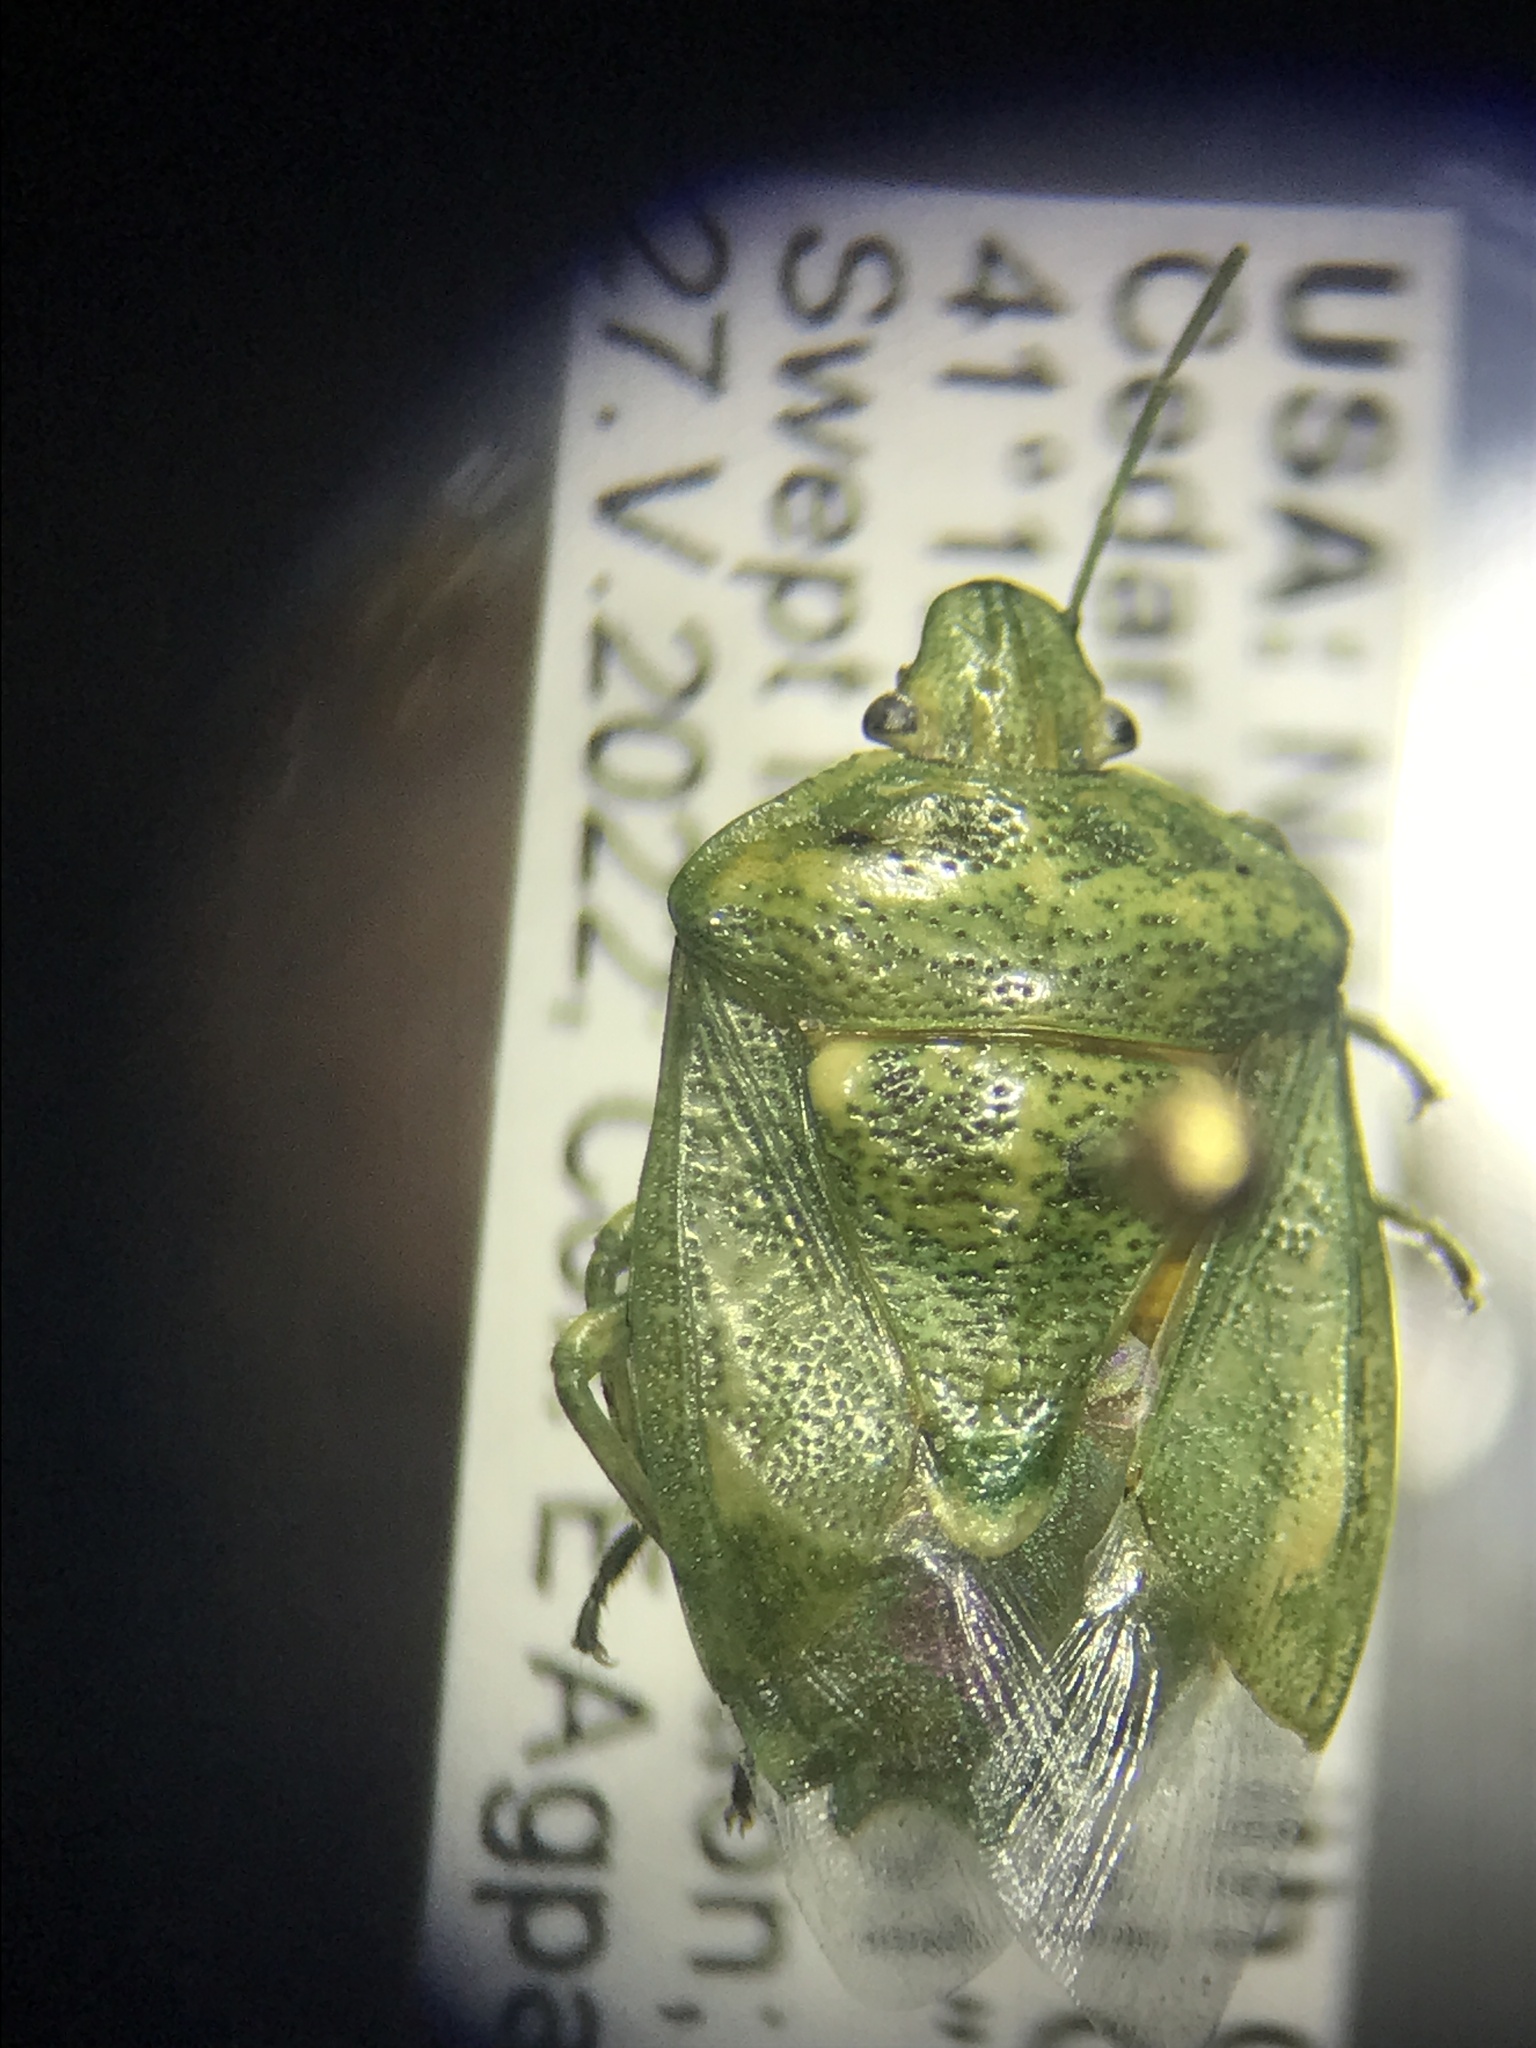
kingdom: Animalia
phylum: Arthropoda
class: Insecta
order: Hemiptera
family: Pentatomidae
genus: Banasa
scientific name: Banasa euchlora
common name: Cedar berry bug
